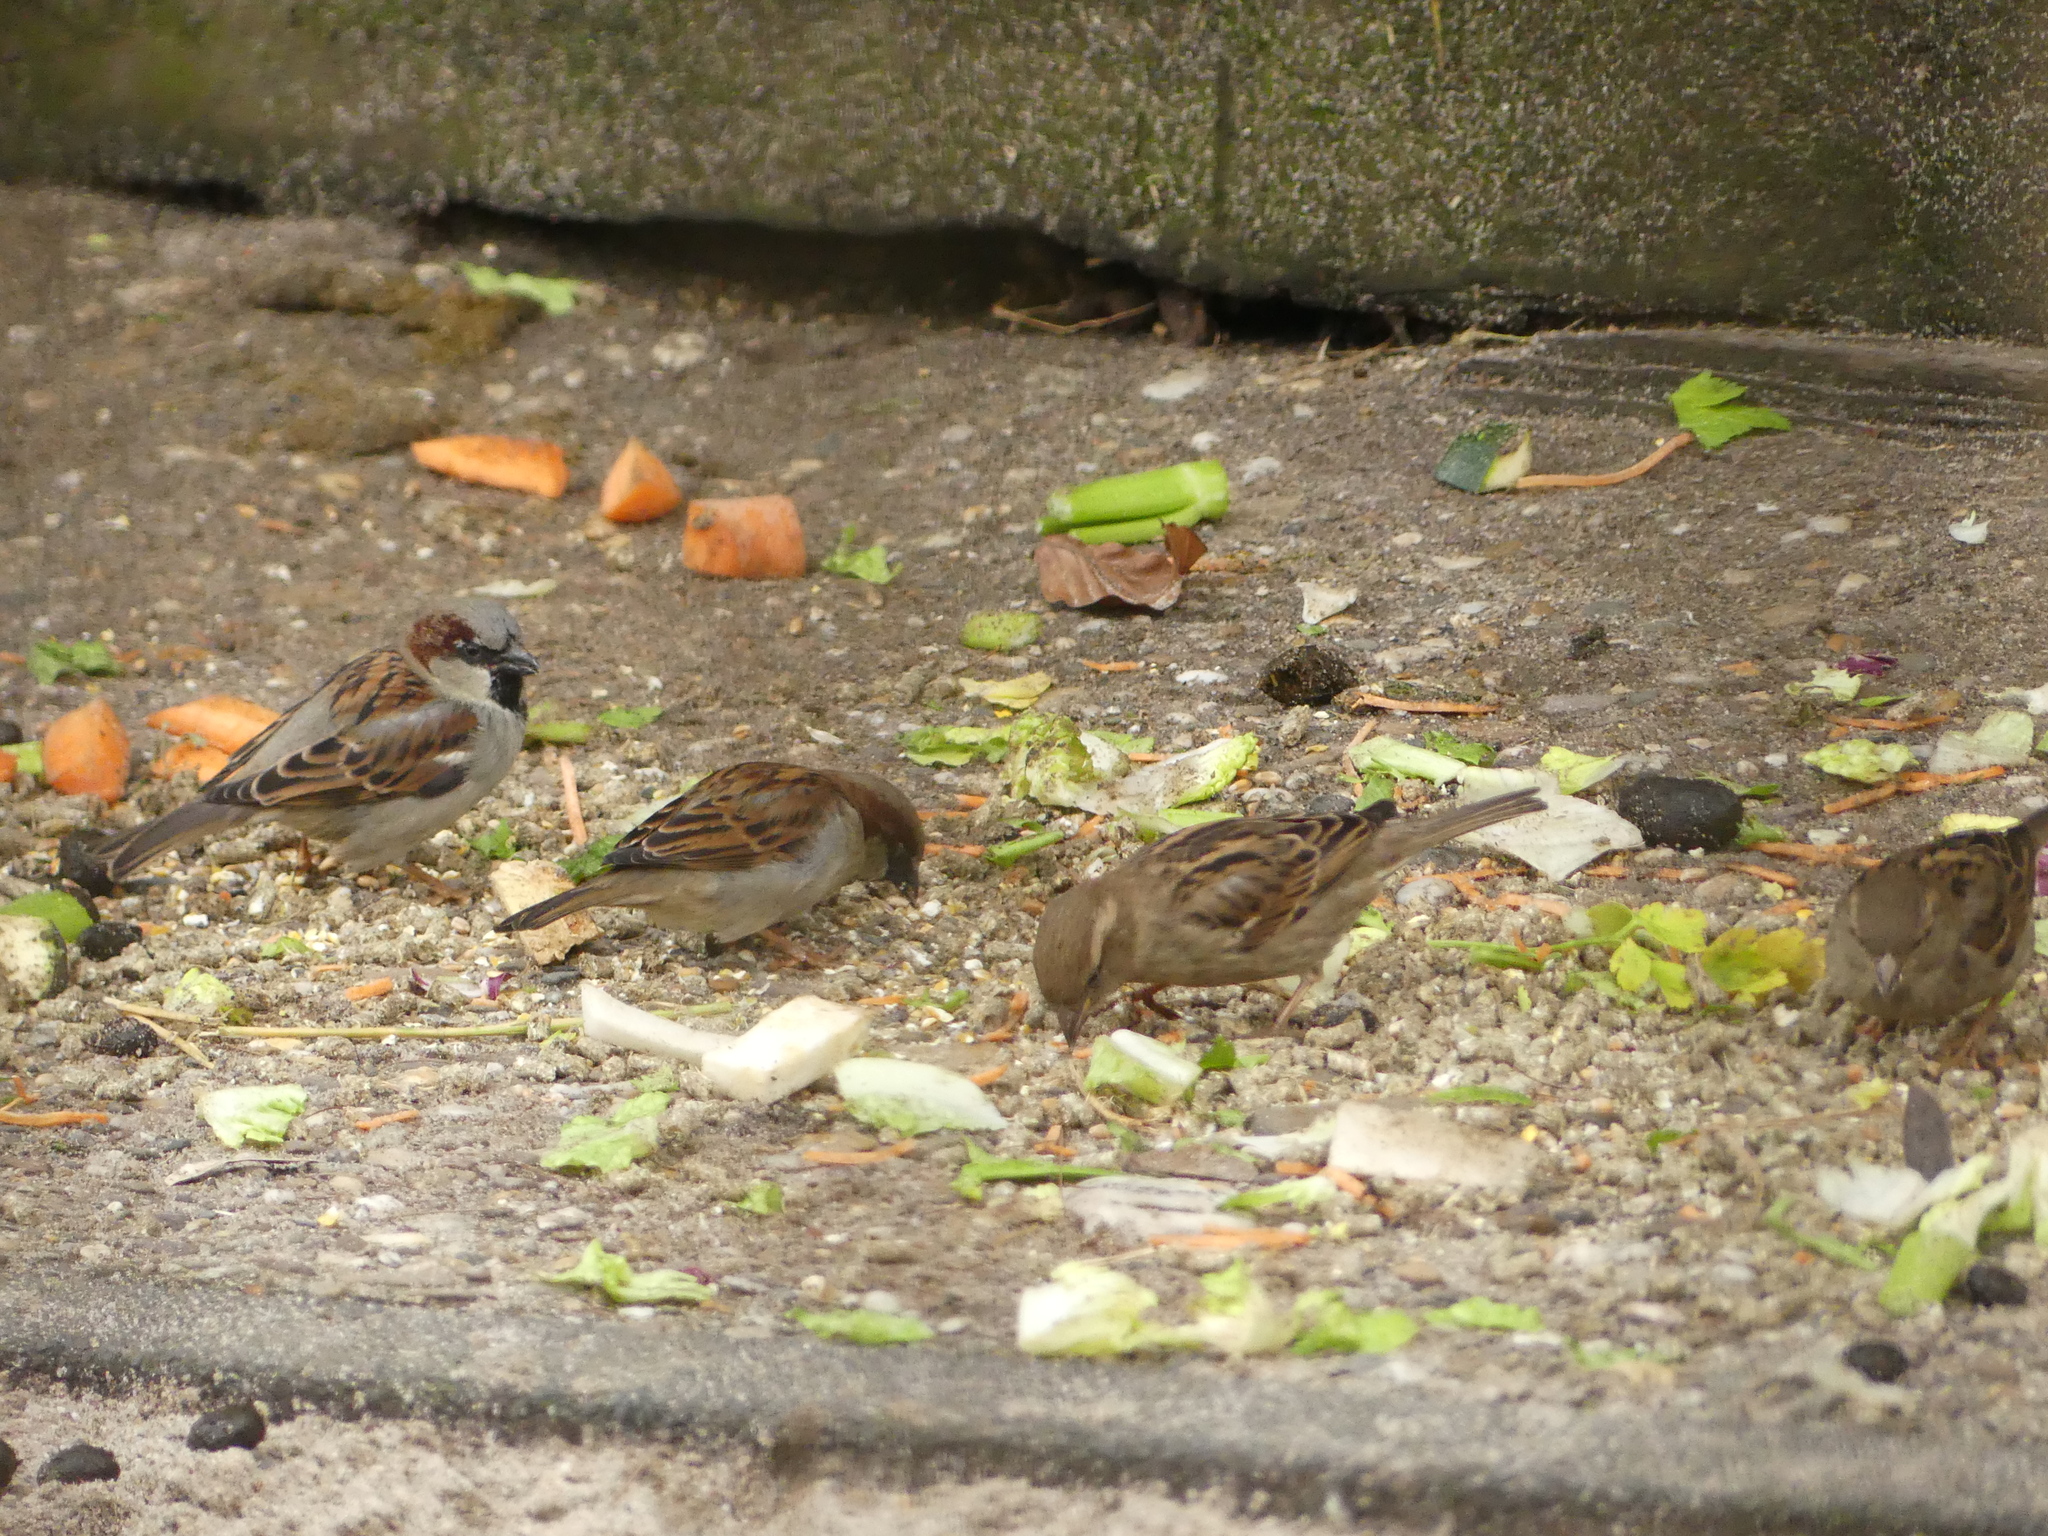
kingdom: Animalia
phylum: Chordata
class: Aves
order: Passeriformes
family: Passeridae
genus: Passer
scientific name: Passer domesticus
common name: House sparrow
